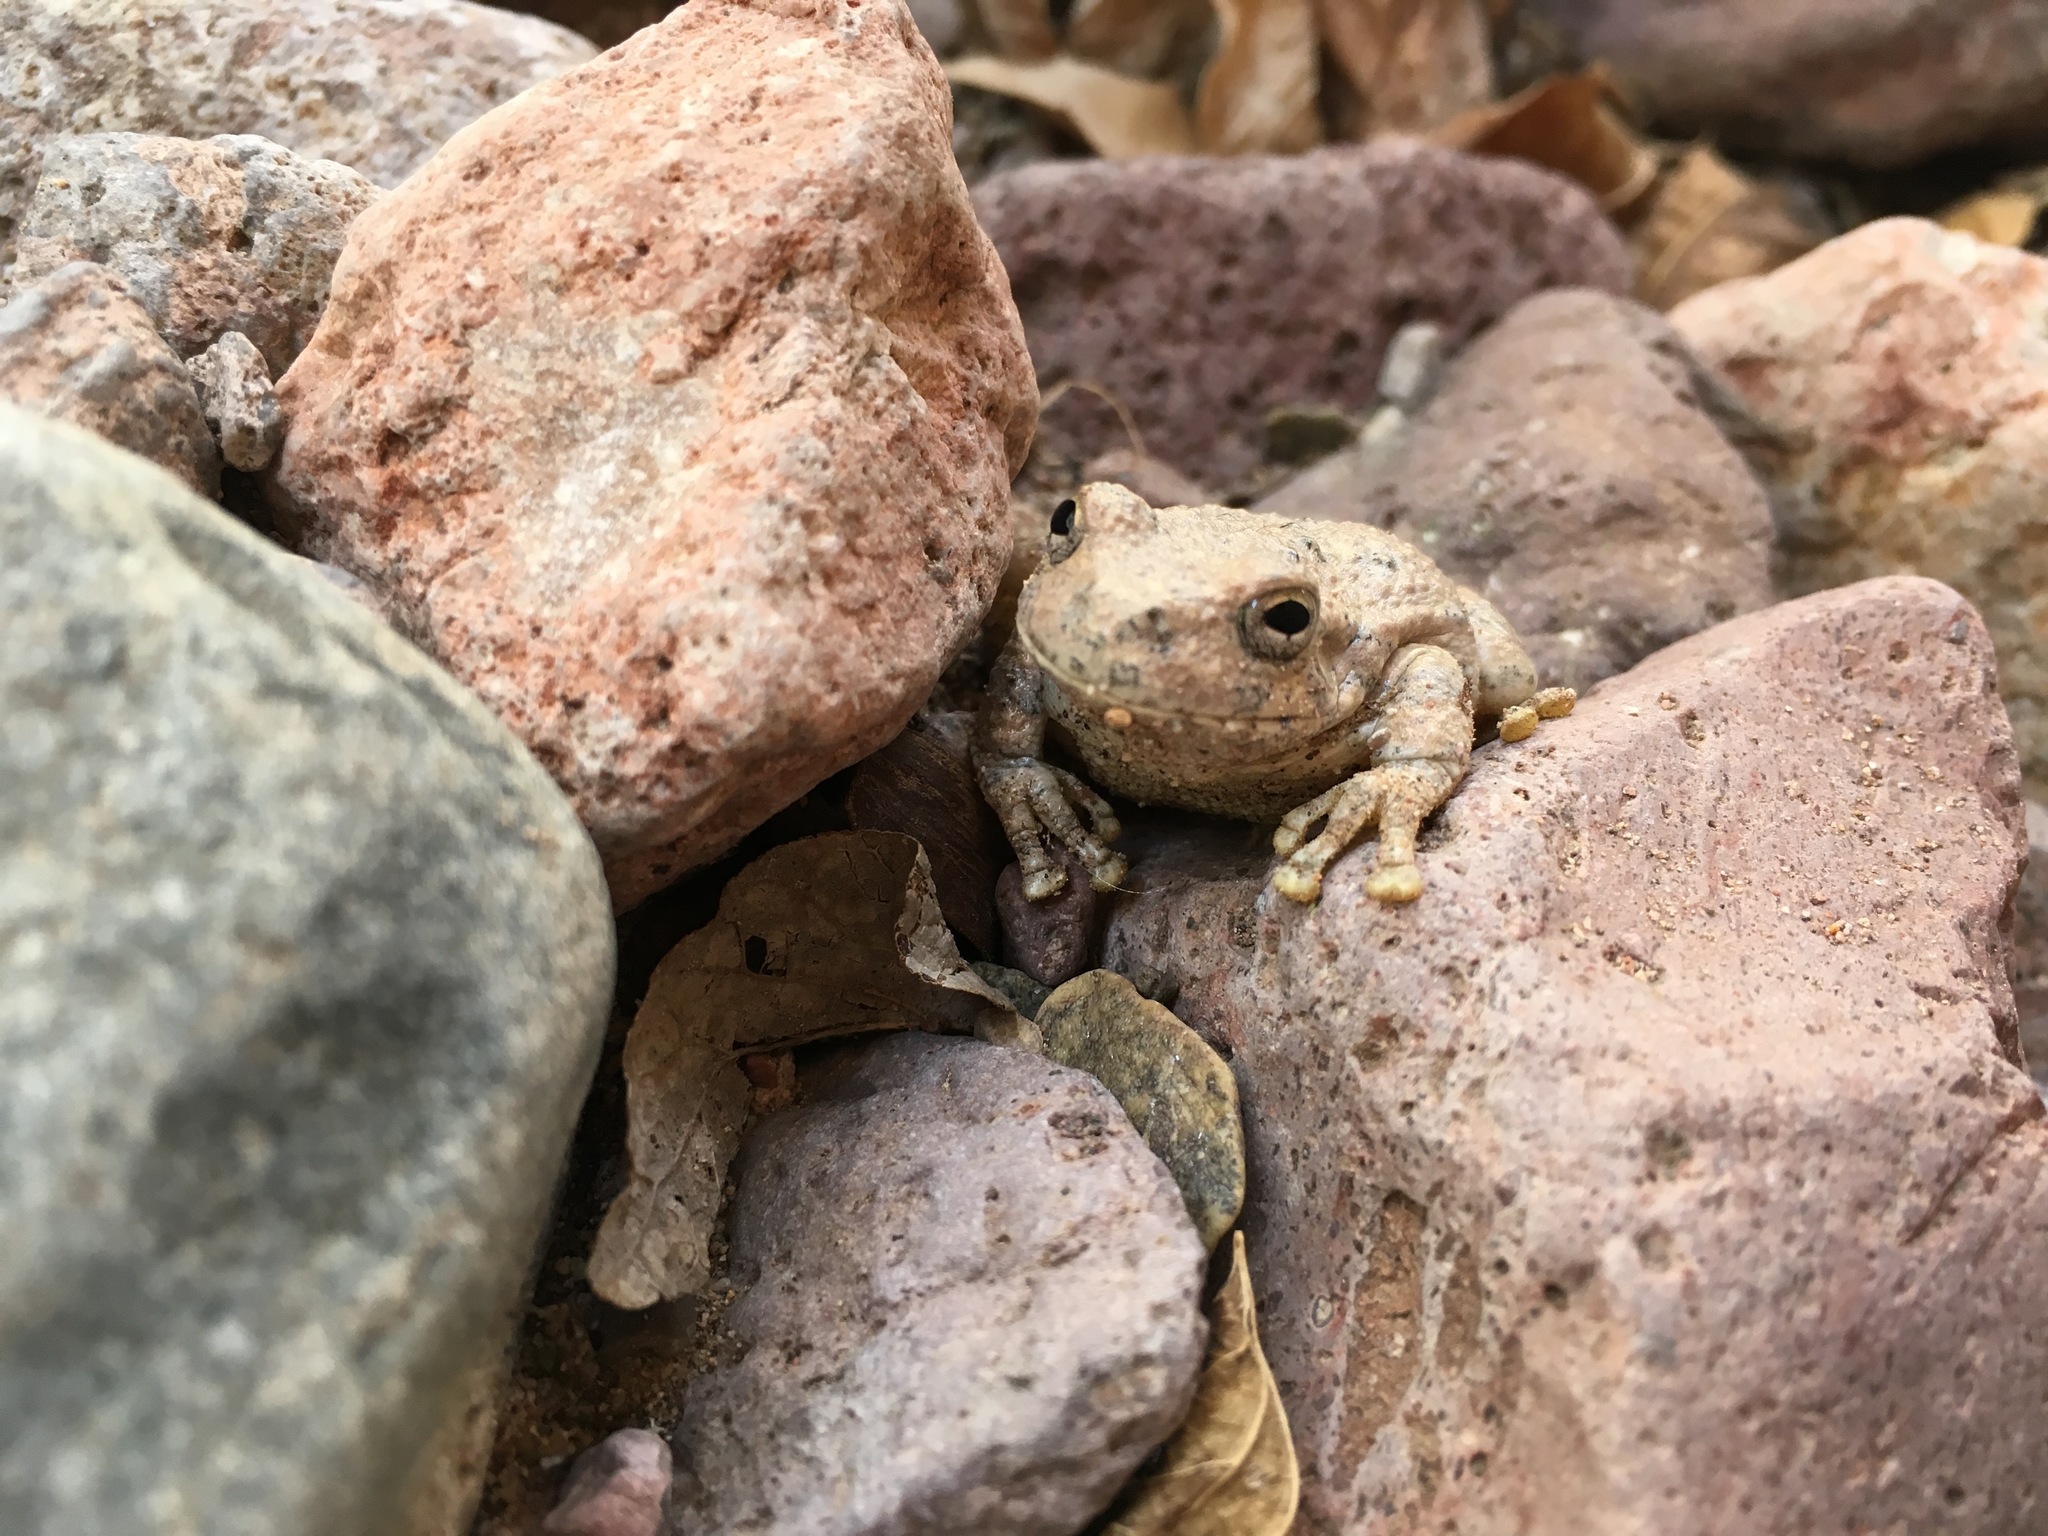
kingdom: Animalia
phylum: Chordata
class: Amphibia
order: Anura
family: Hylidae
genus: Dryophytes
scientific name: Dryophytes arenicolor
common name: Canyon treefrog
